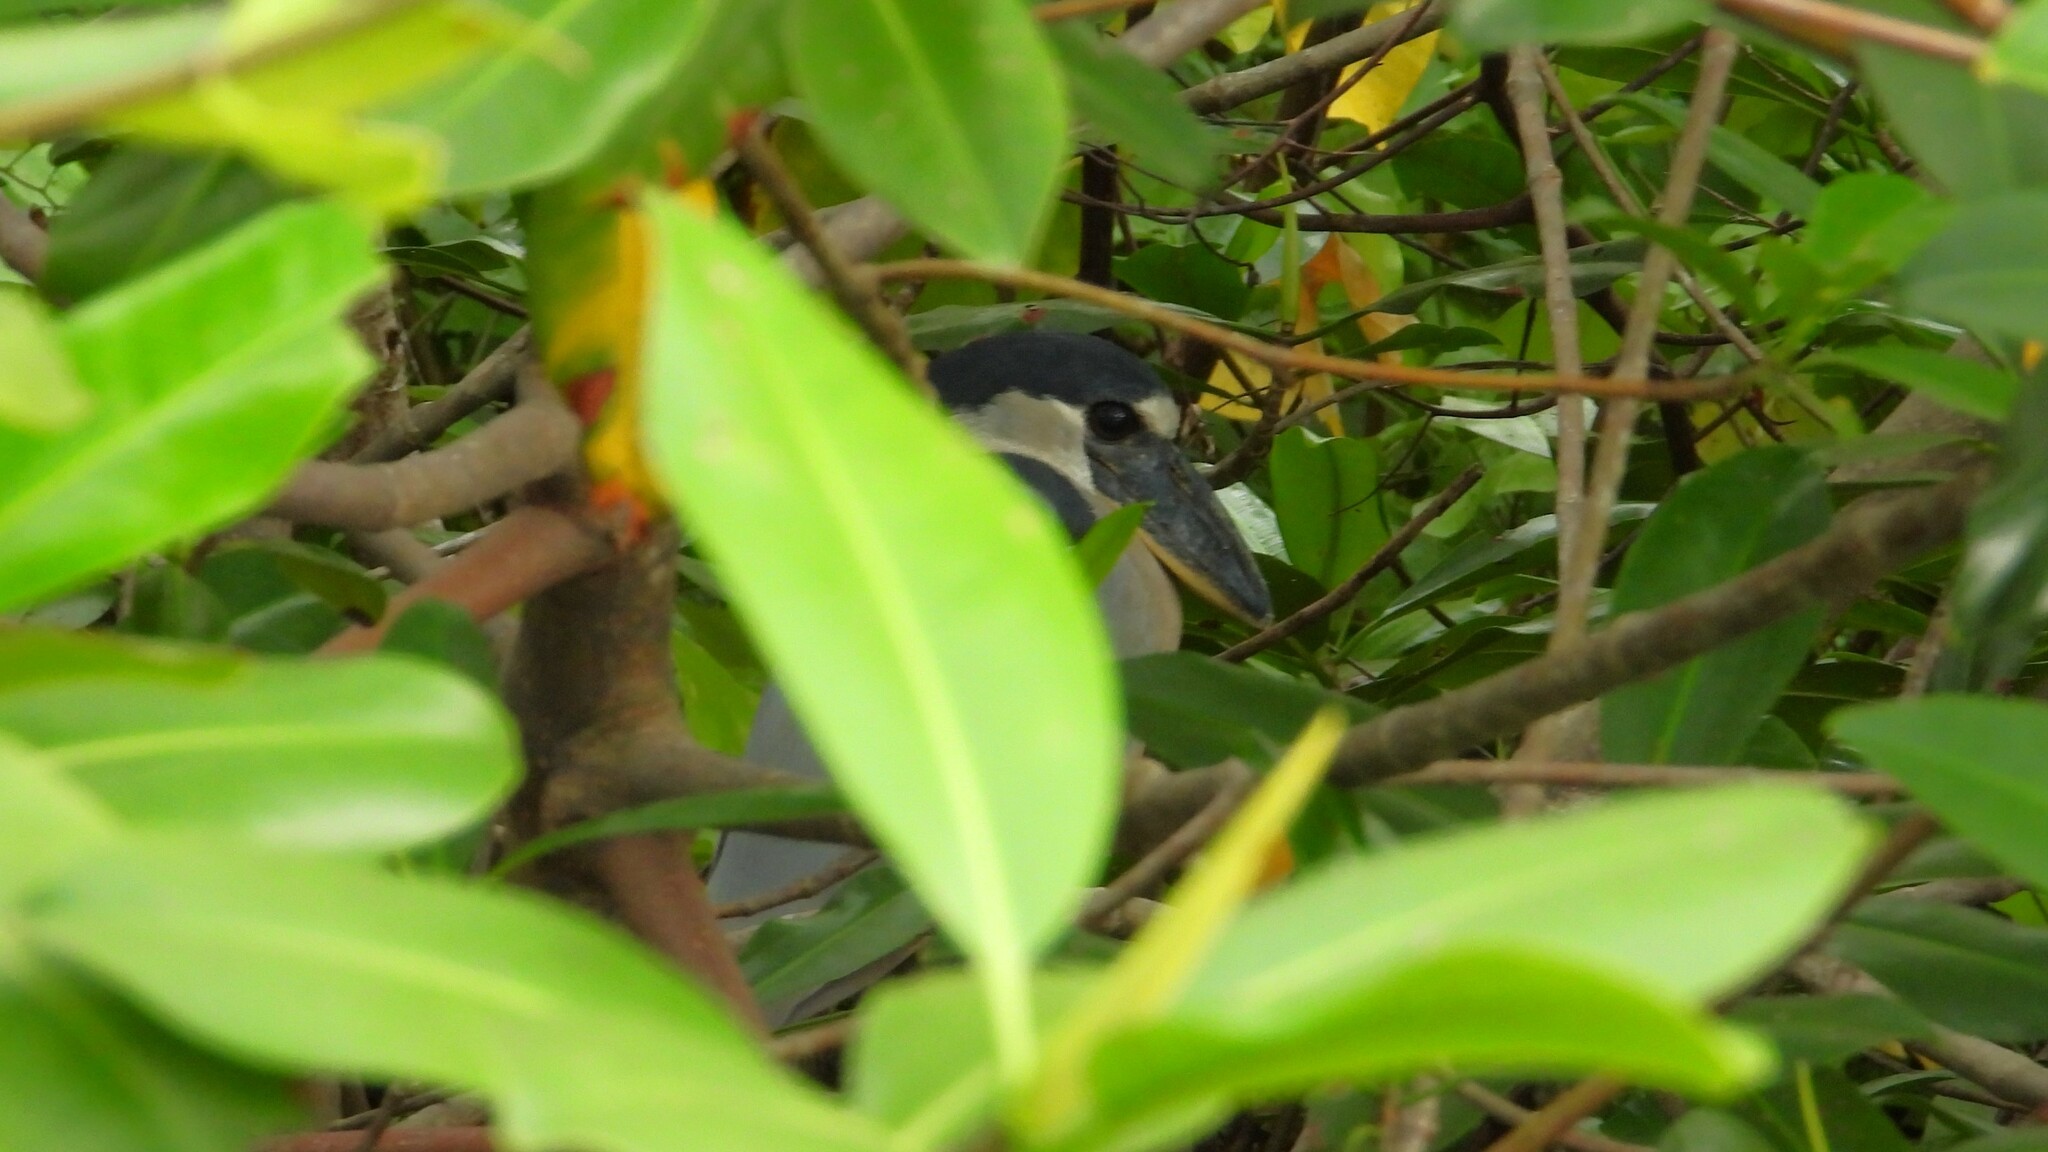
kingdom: Animalia
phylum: Chordata
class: Aves
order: Pelecaniformes
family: Ardeidae
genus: Cochlearius
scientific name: Cochlearius cochlearius
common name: Boat-billed heron
